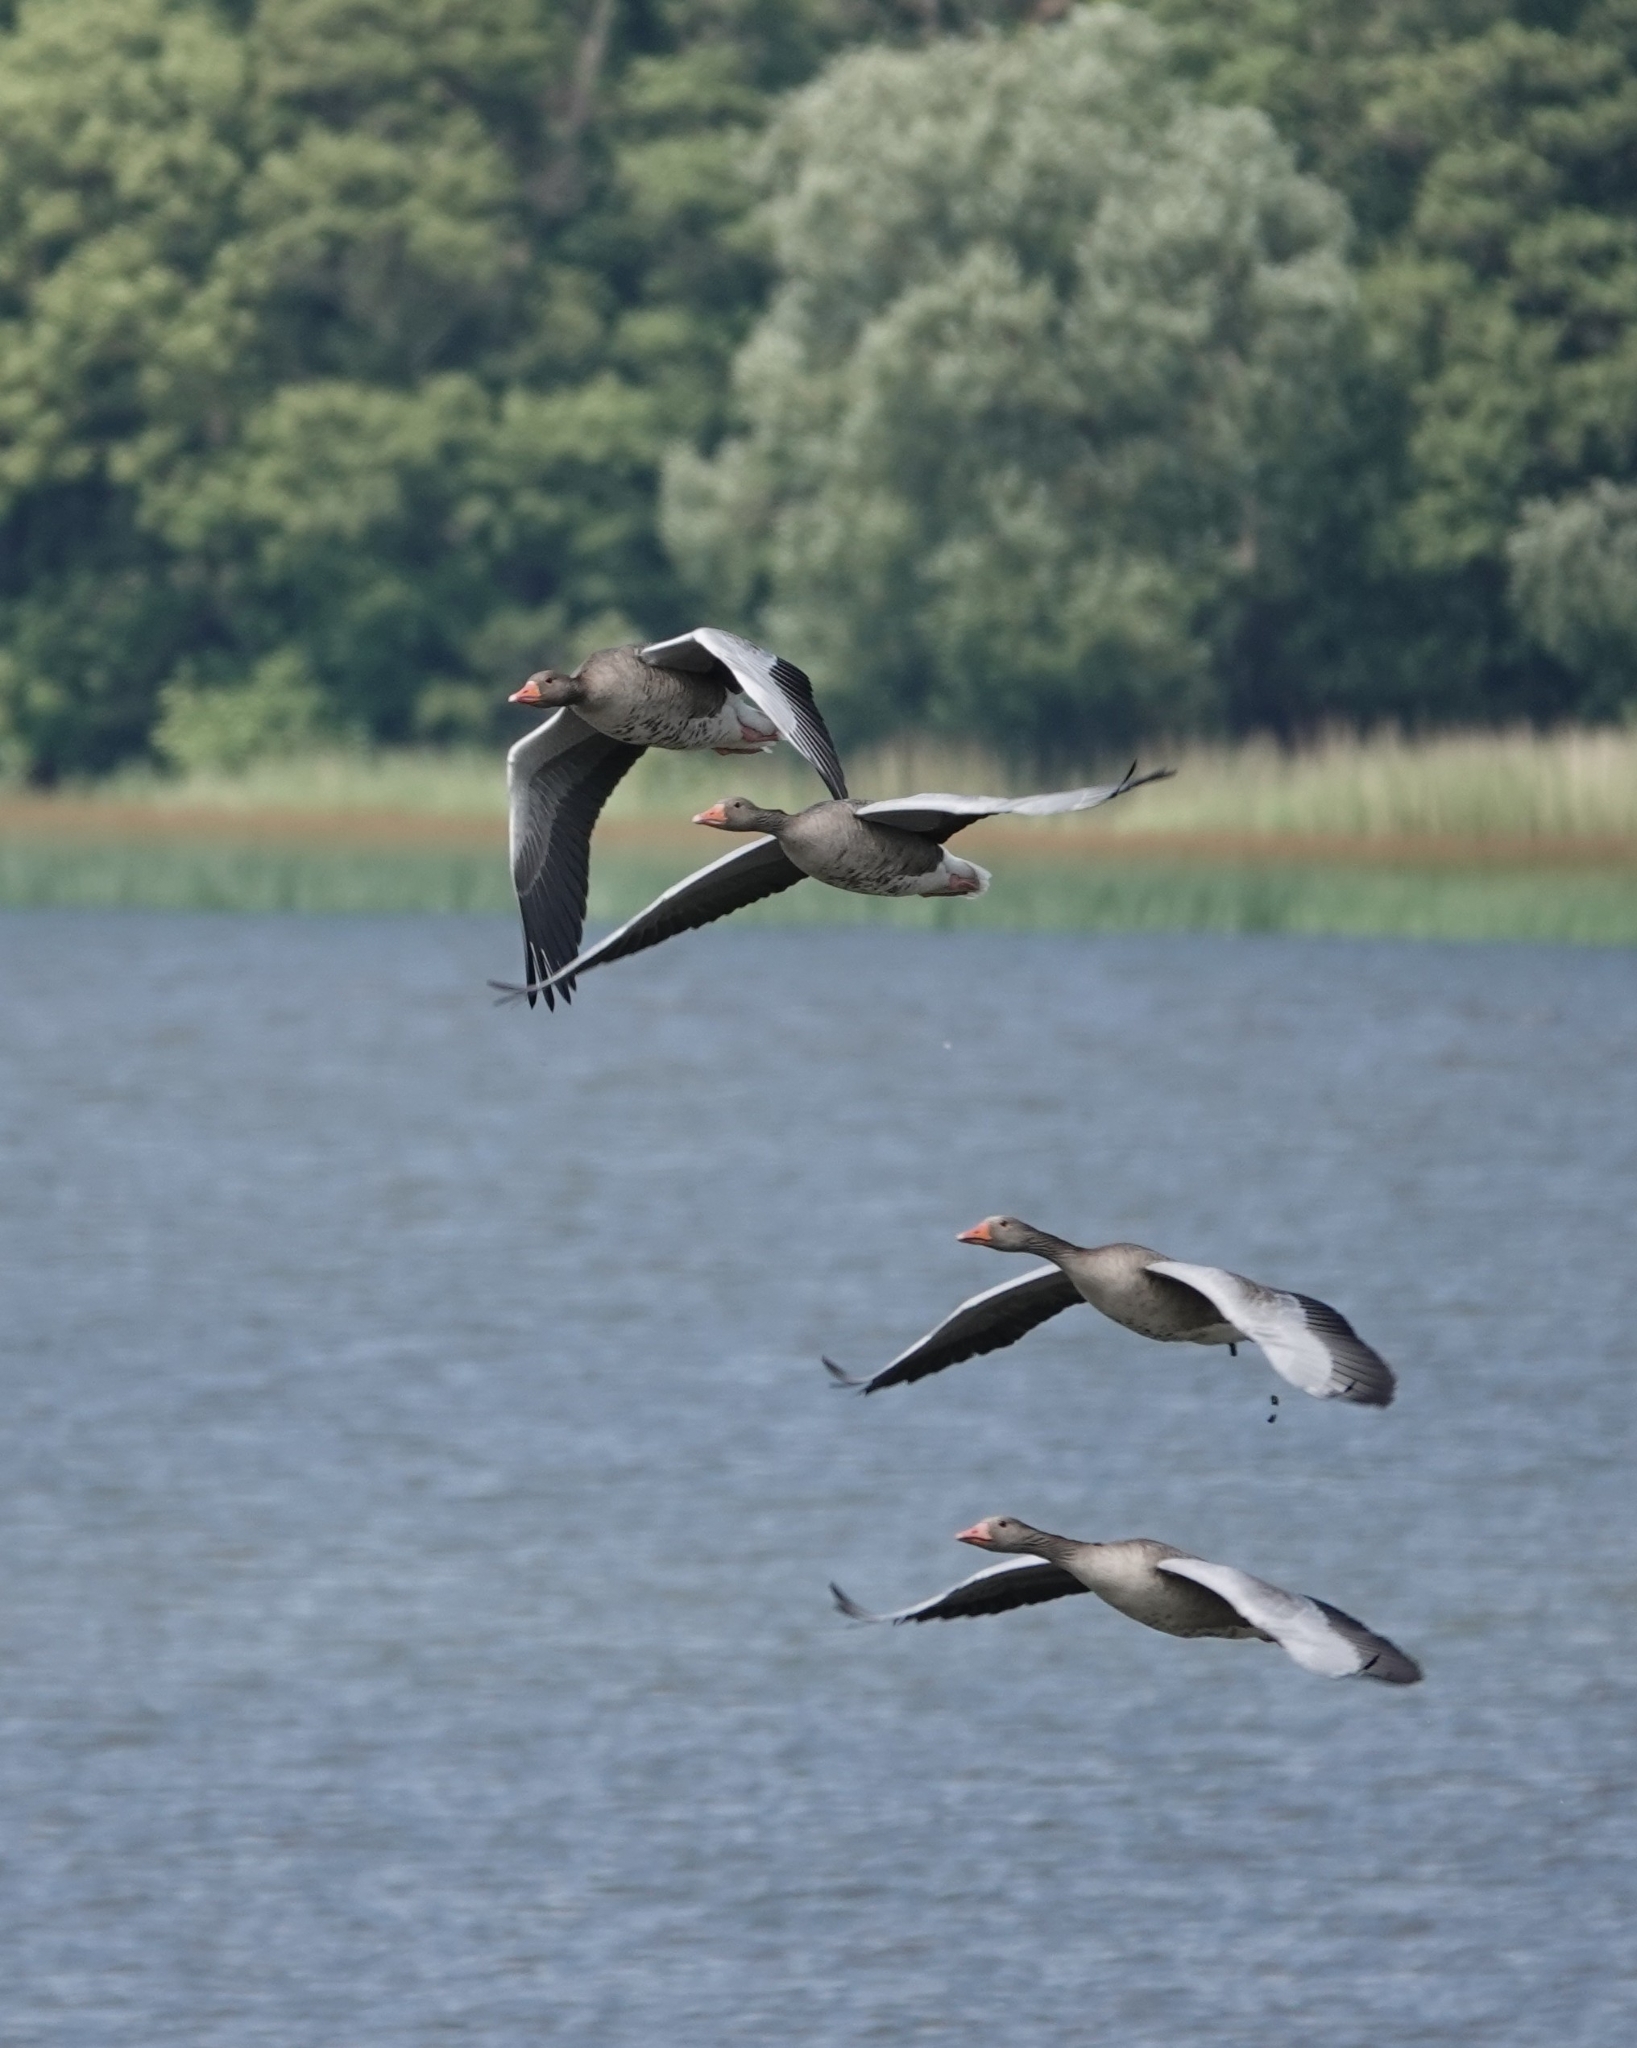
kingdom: Animalia
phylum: Chordata
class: Aves
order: Anseriformes
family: Anatidae
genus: Anser
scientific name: Anser anser
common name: Greylag goose
